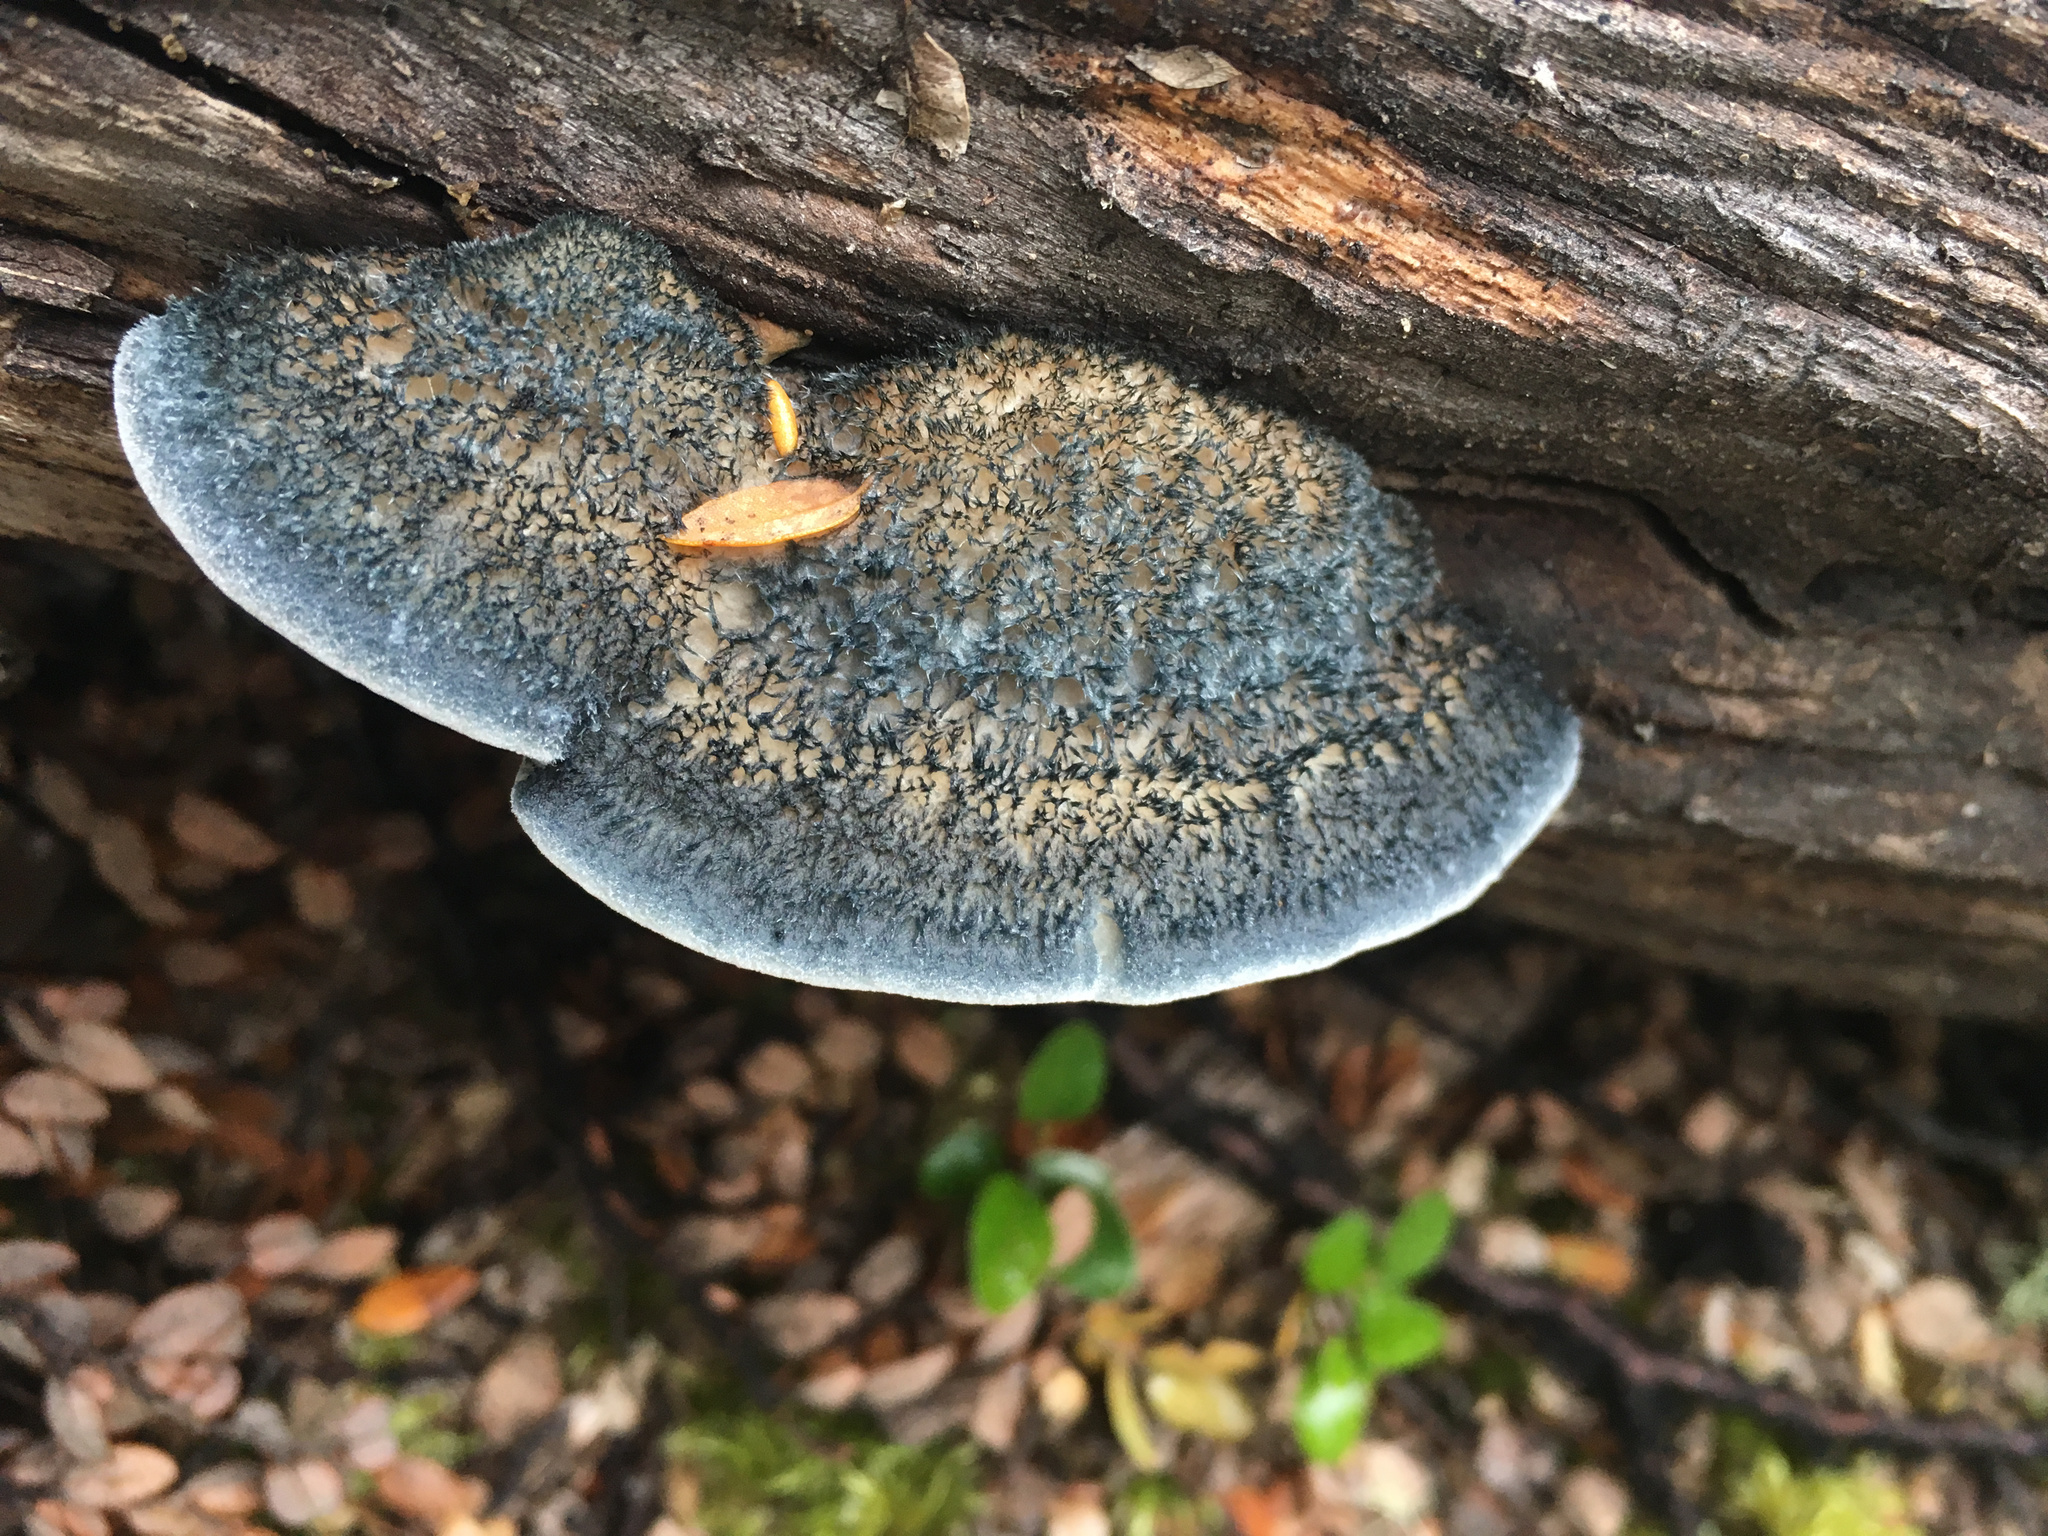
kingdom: Fungi
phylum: Basidiomycota
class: Agaricomycetes
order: Polyporales
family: Incrustoporiaceae
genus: Tyromyces
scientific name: Tyromyces atrostrigosus
